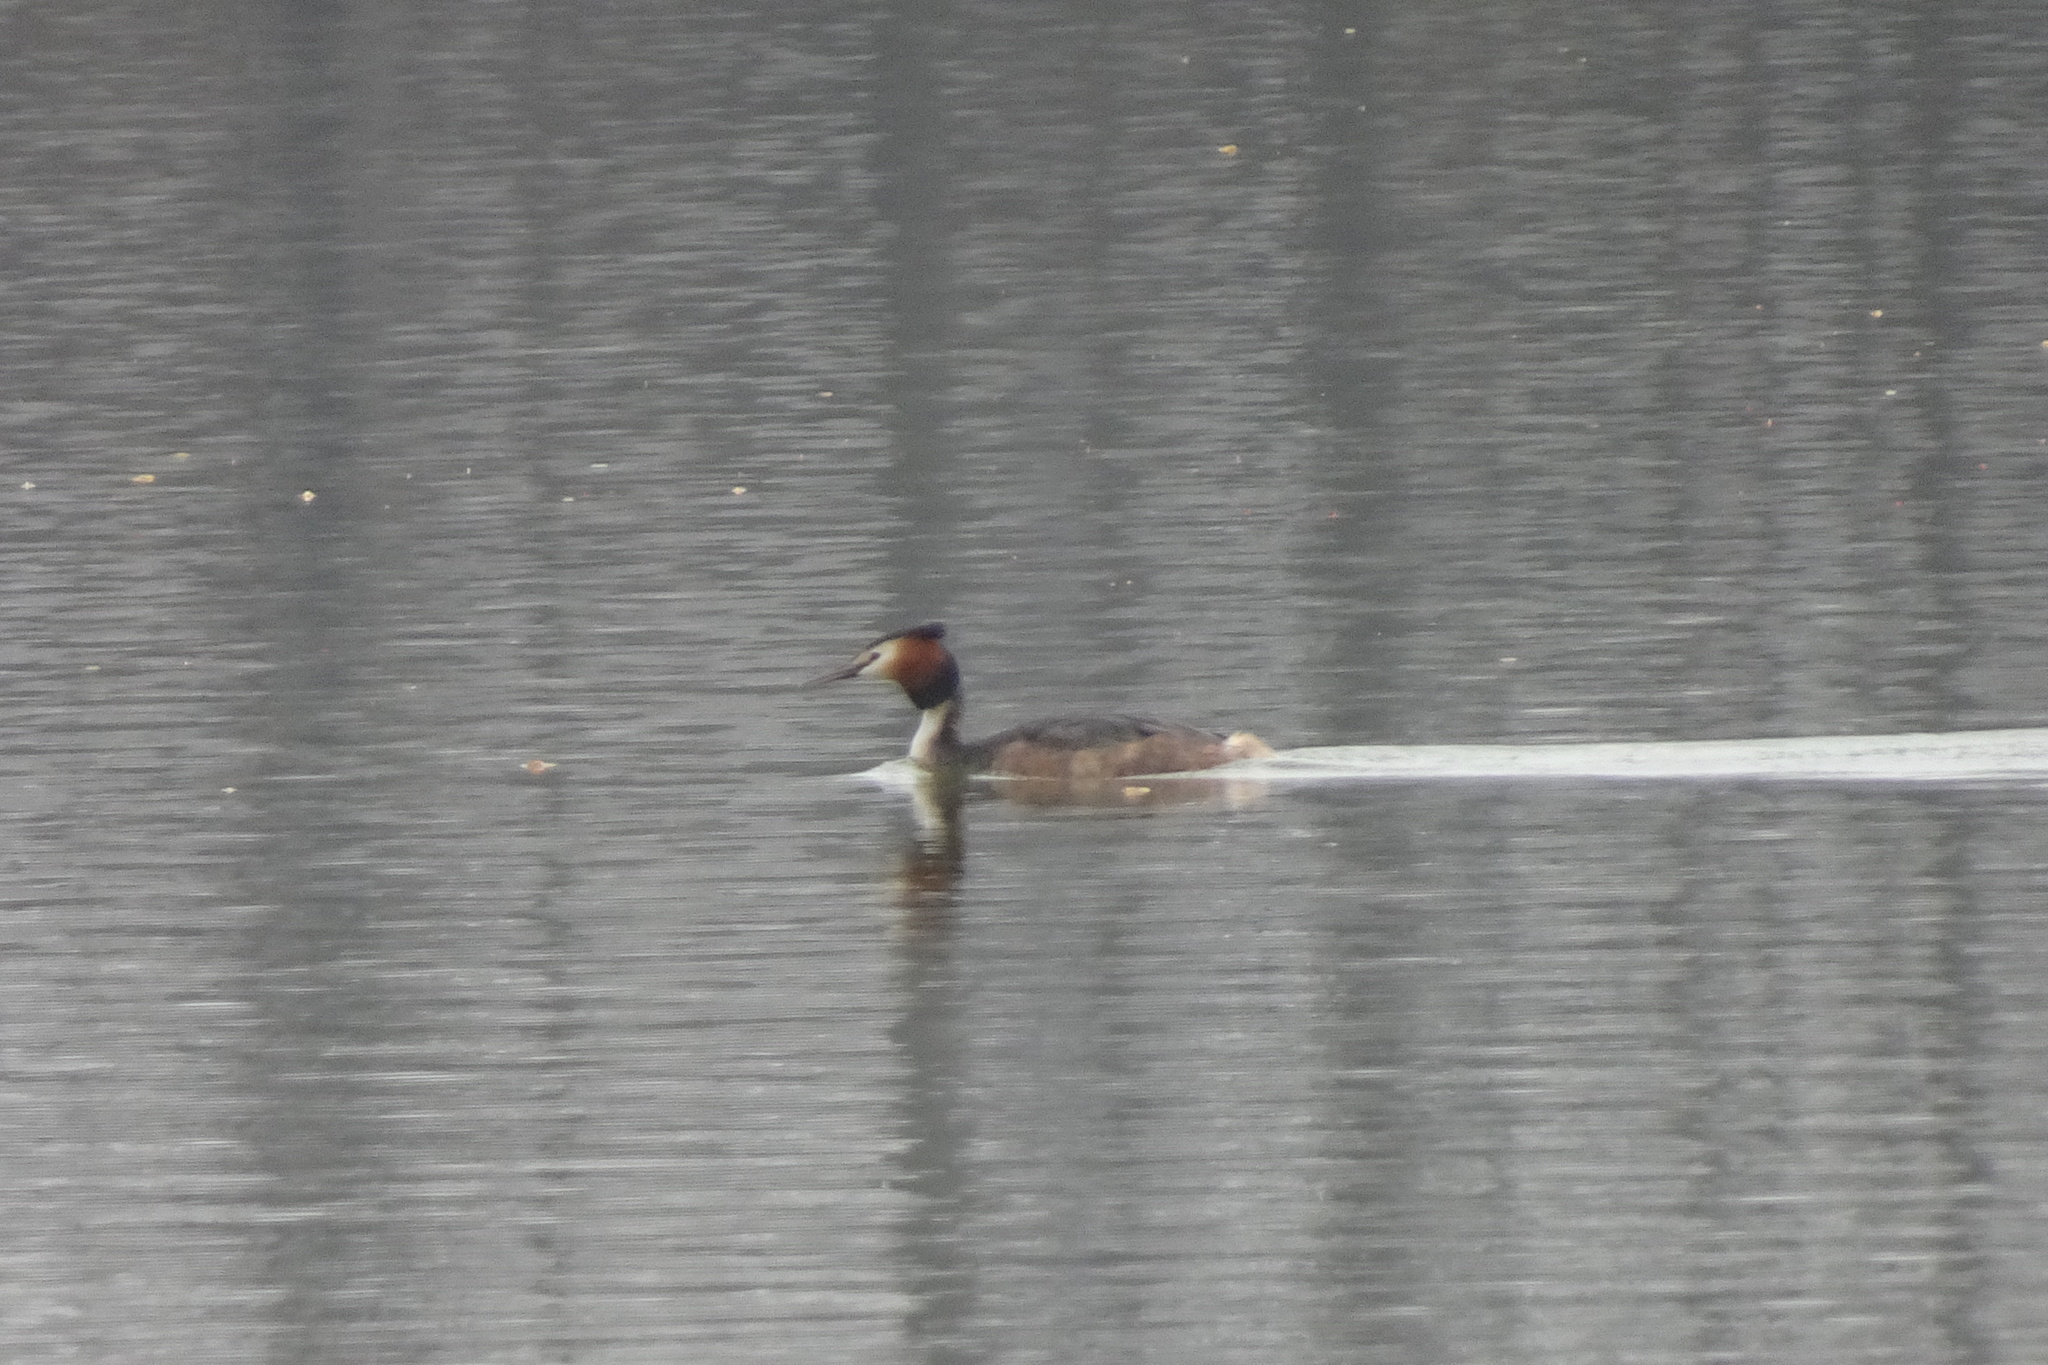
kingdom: Animalia
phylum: Chordata
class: Aves
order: Podicipediformes
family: Podicipedidae
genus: Podiceps
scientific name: Podiceps cristatus
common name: Great crested grebe
